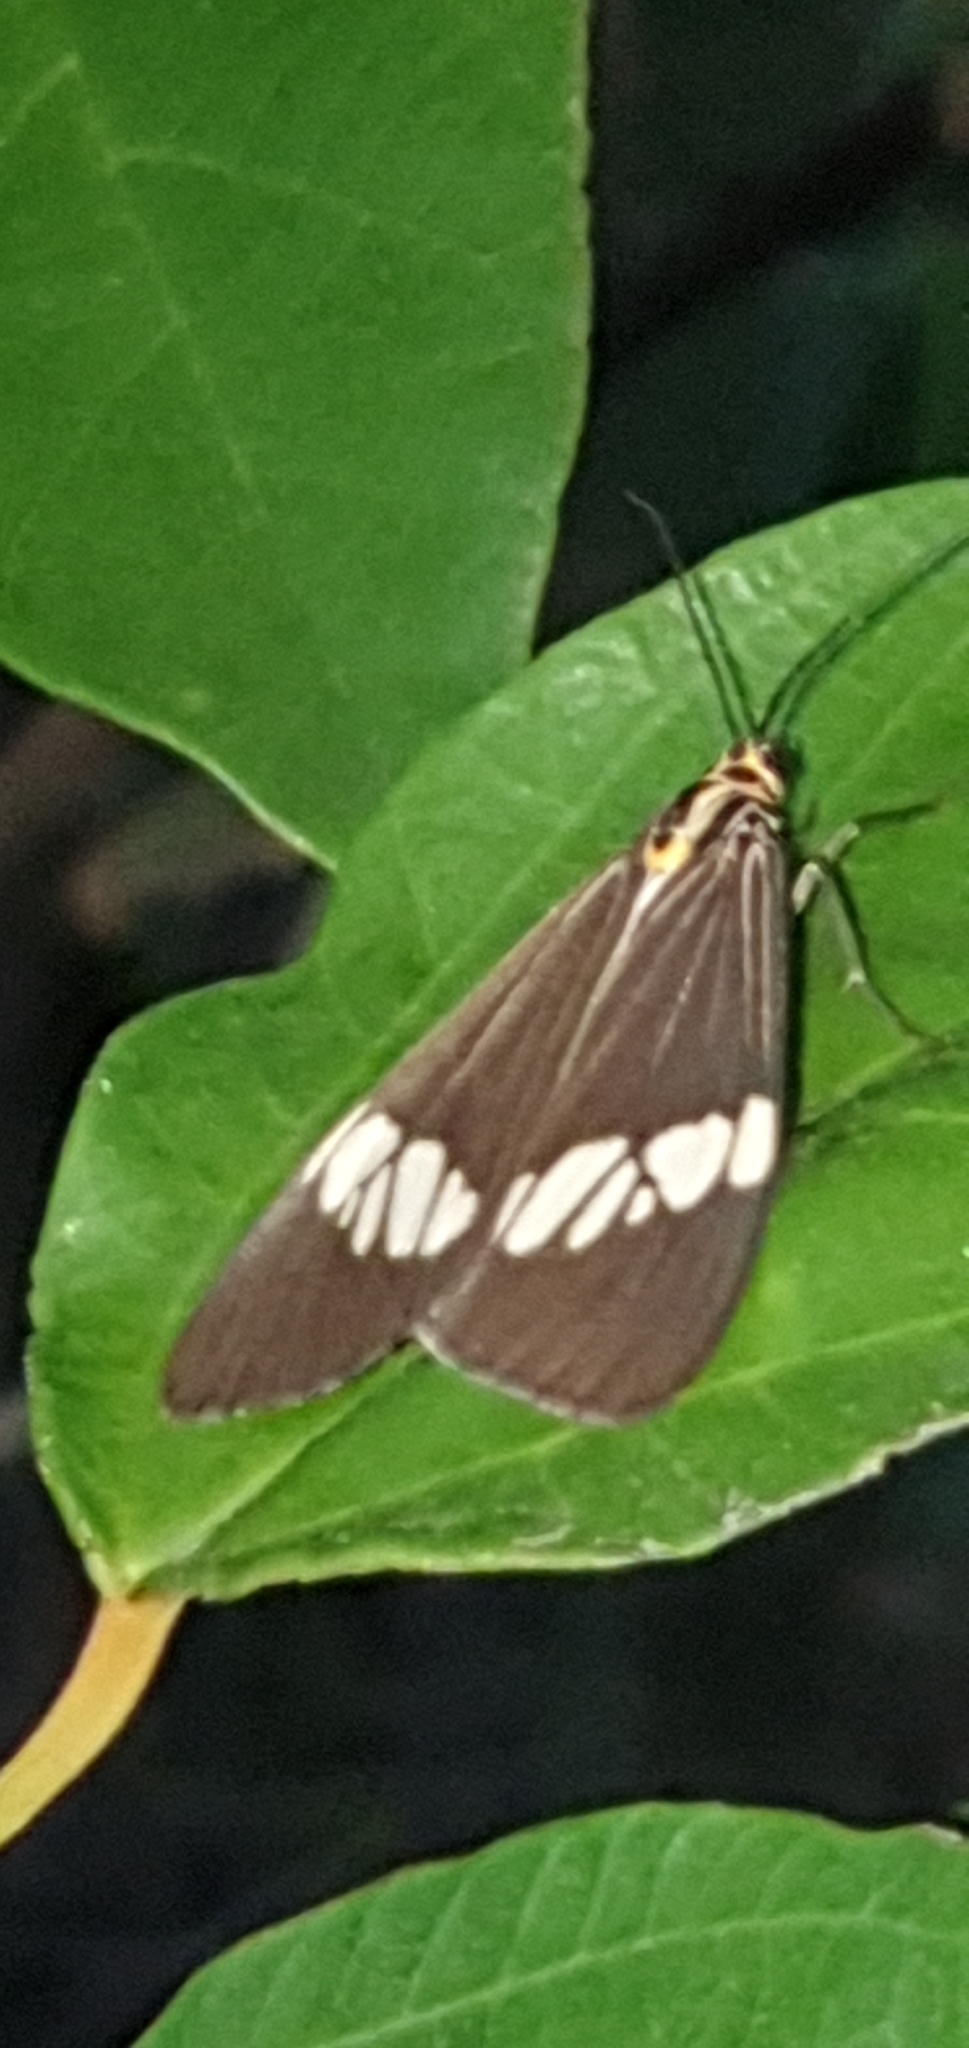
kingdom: Animalia
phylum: Arthropoda
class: Insecta
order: Lepidoptera
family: Erebidae
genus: Nyctemera
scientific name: Nyctemera baulus
